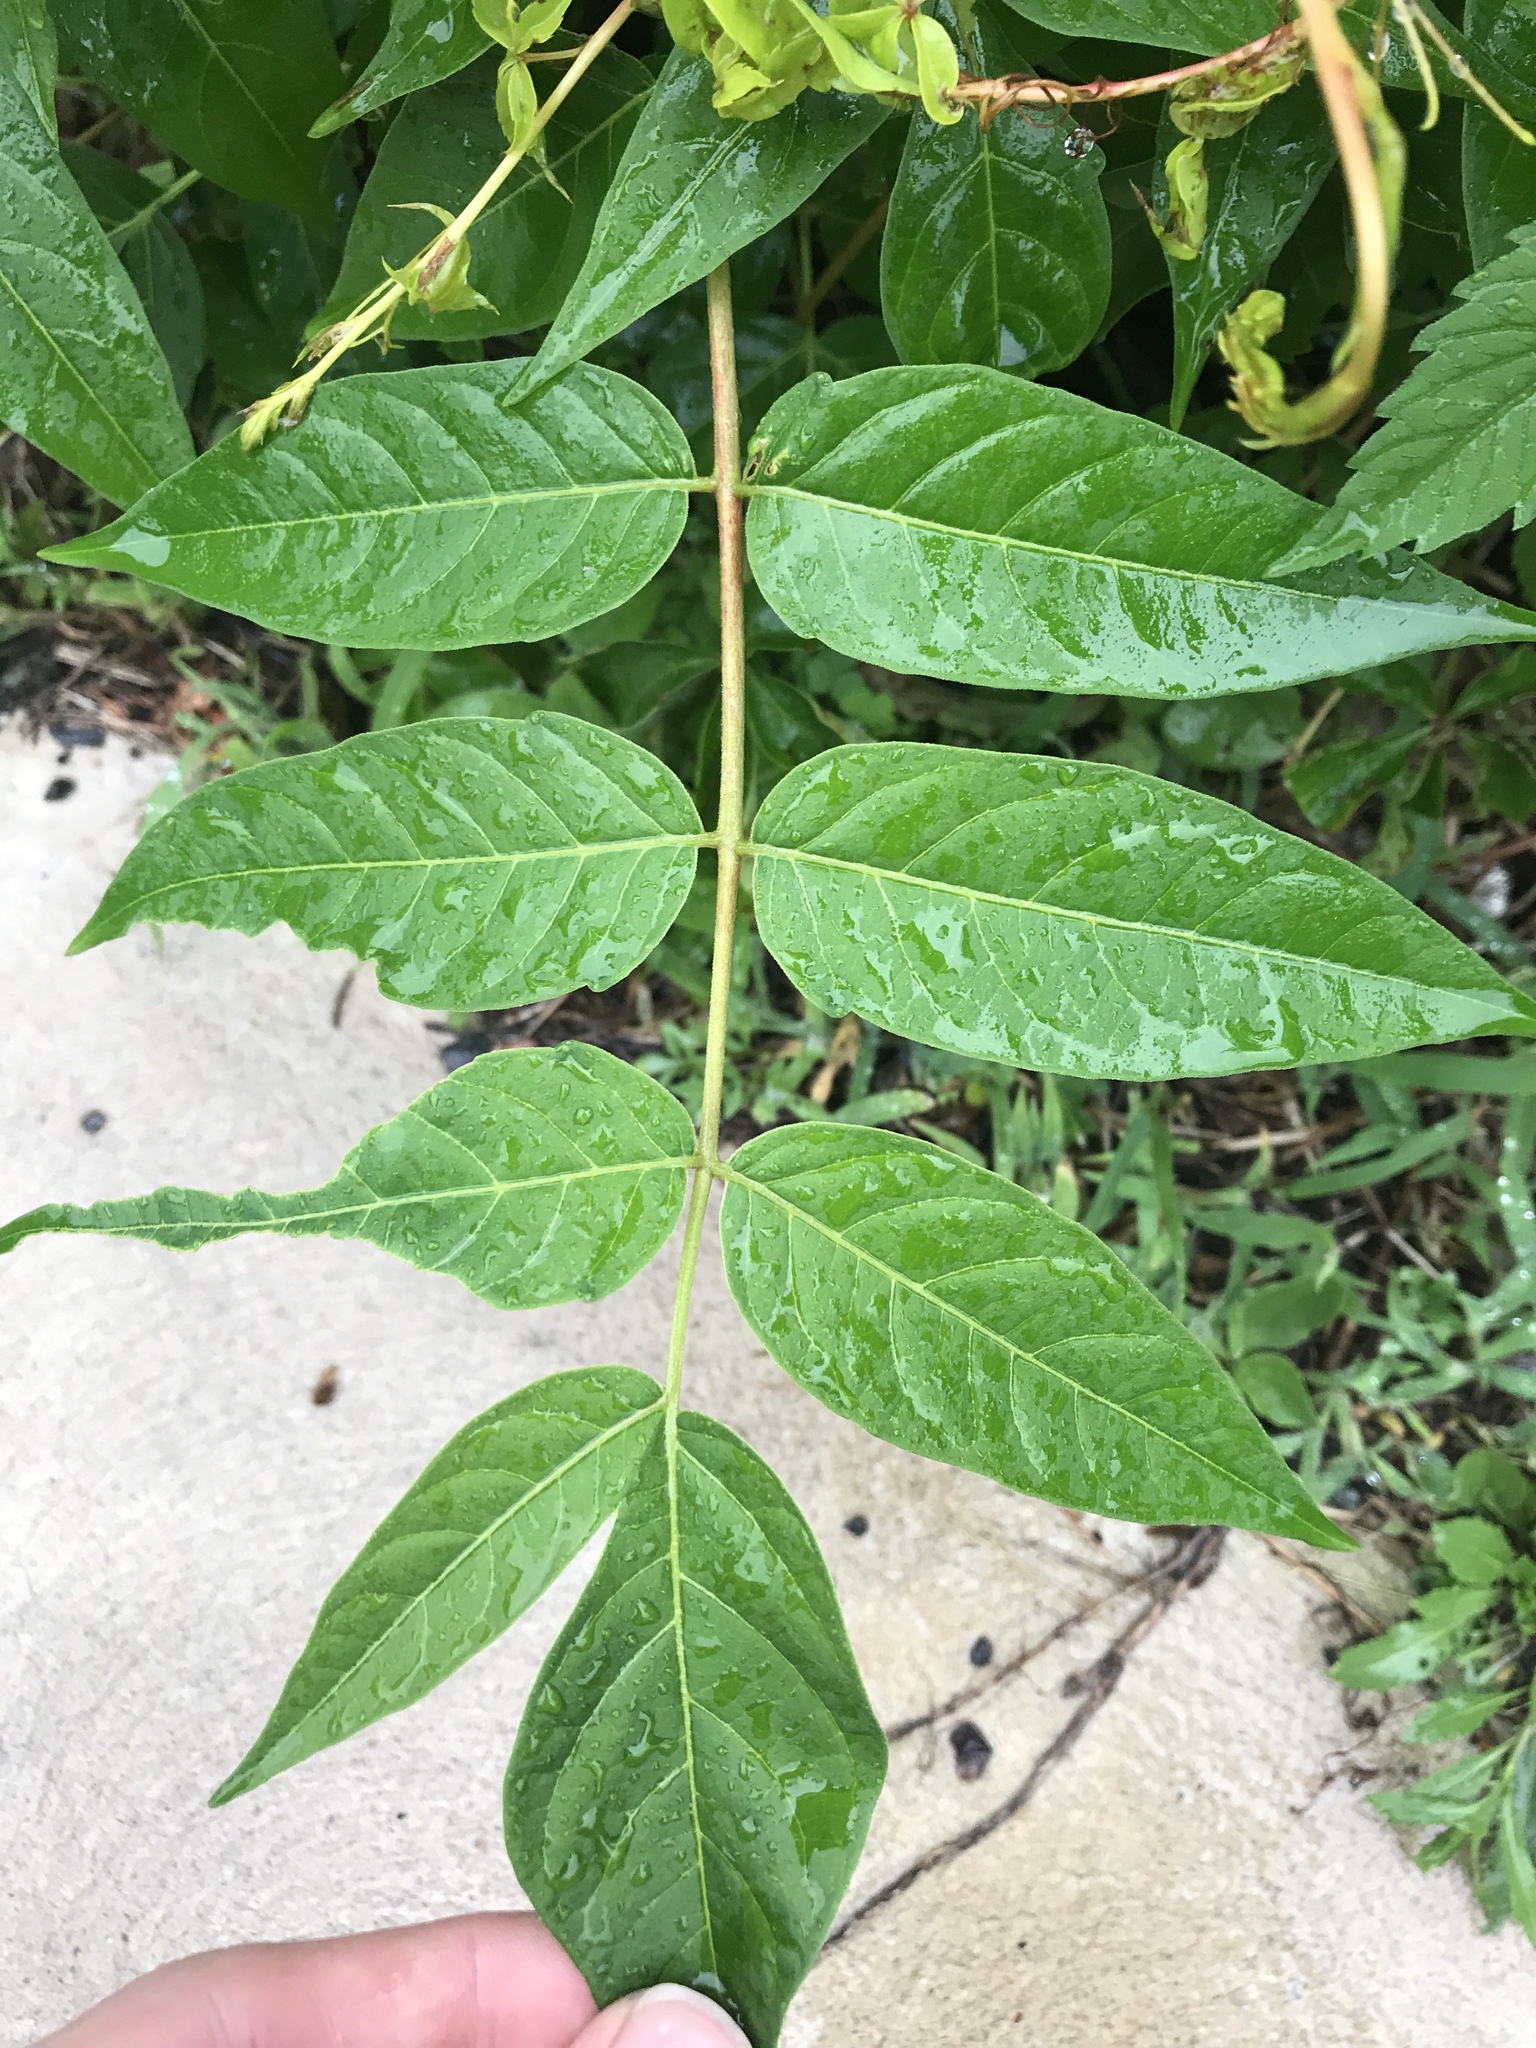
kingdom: Plantae
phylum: Tracheophyta
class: Magnoliopsida
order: Sapindales
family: Simaroubaceae
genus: Ailanthus
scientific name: Ailanthus altissima
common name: Tree-of-heaven
